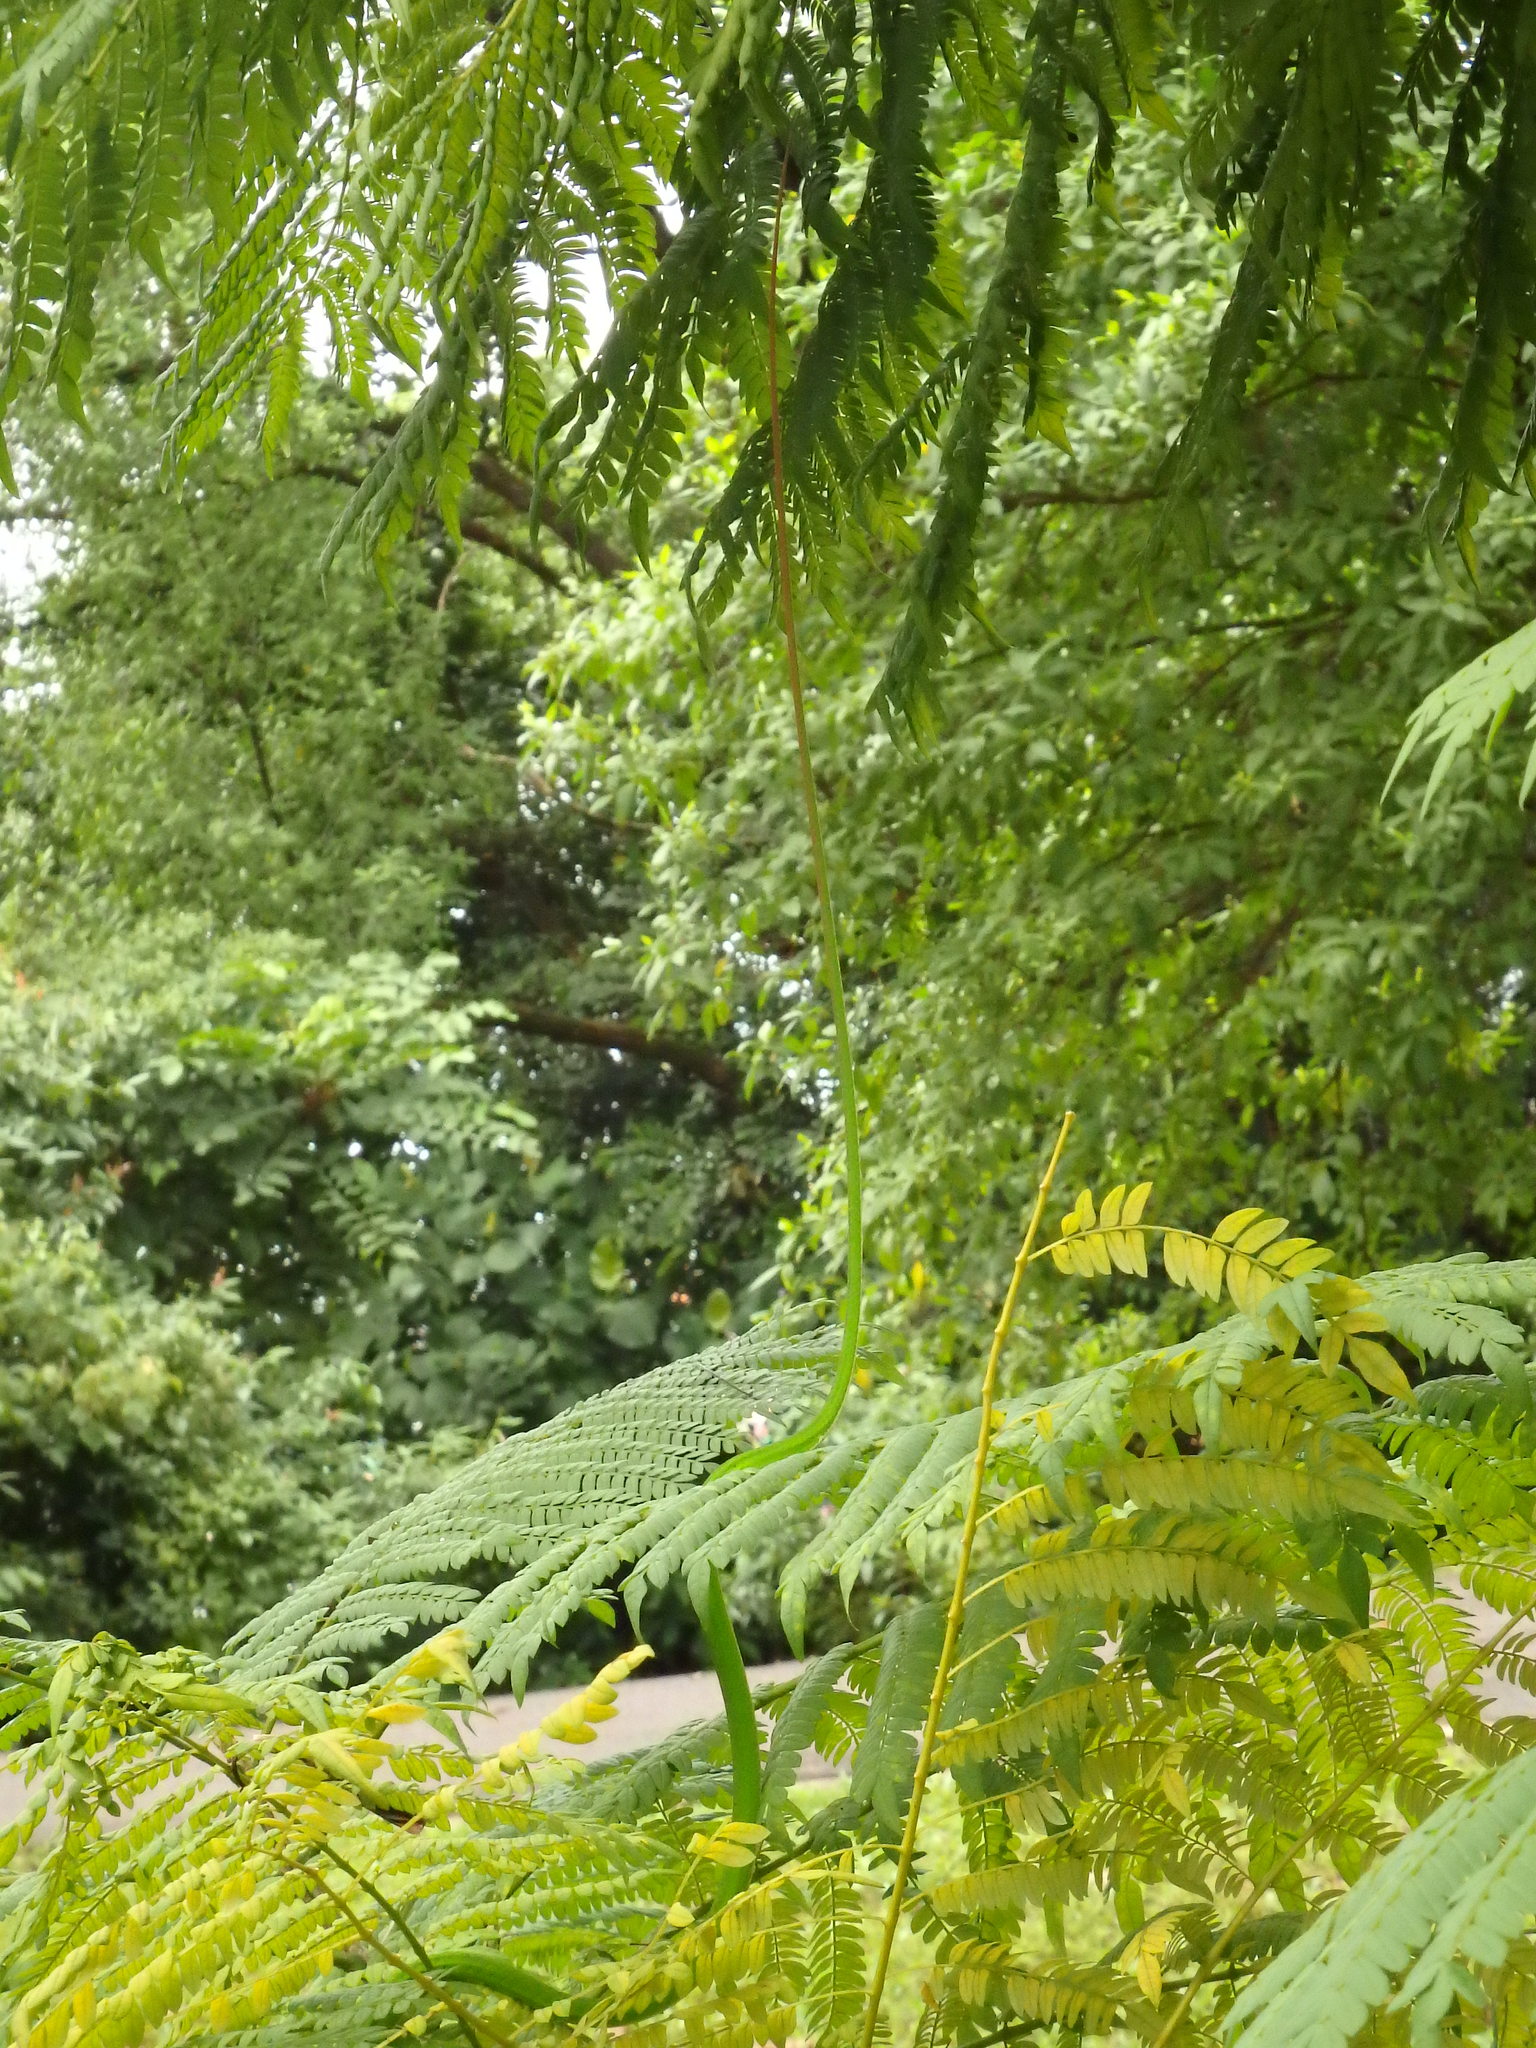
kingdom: Animalia
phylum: Chordata
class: Squamata
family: Colubridae
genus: Ahaetulla
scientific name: Ahaetulla prasina
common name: Oriental whip snake
